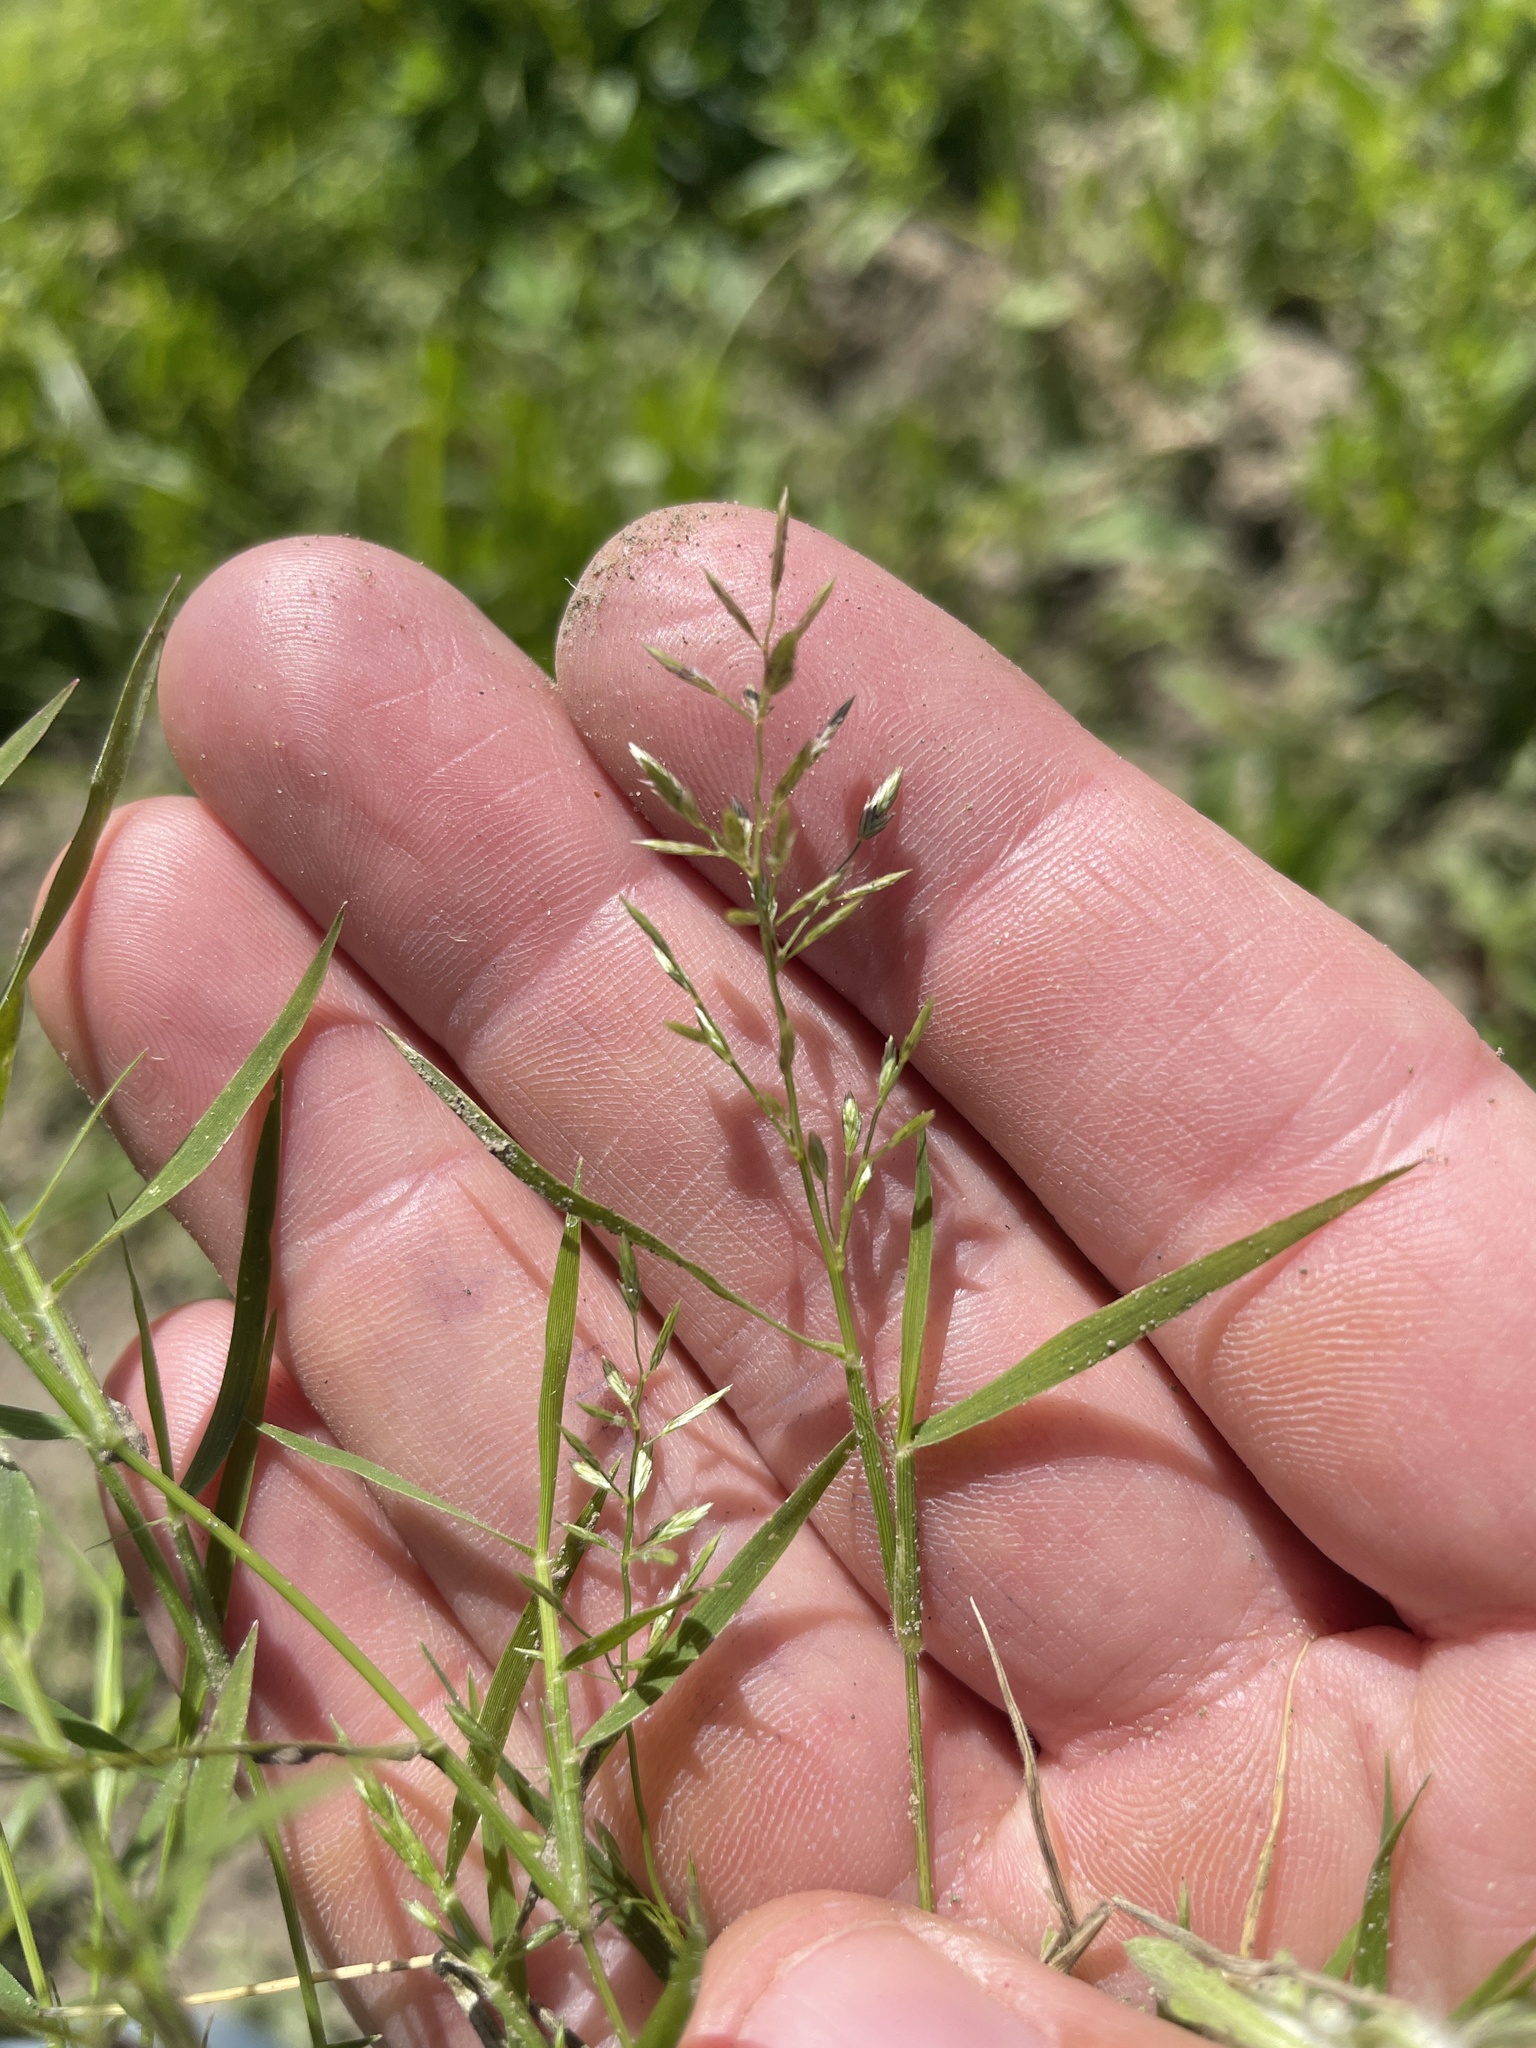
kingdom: Plantae
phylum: Tracheophyta
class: Liliopsida
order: Poales
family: Poaceae
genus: Eragrostis
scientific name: Eragrostis hypnoides
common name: Creeping love grass
